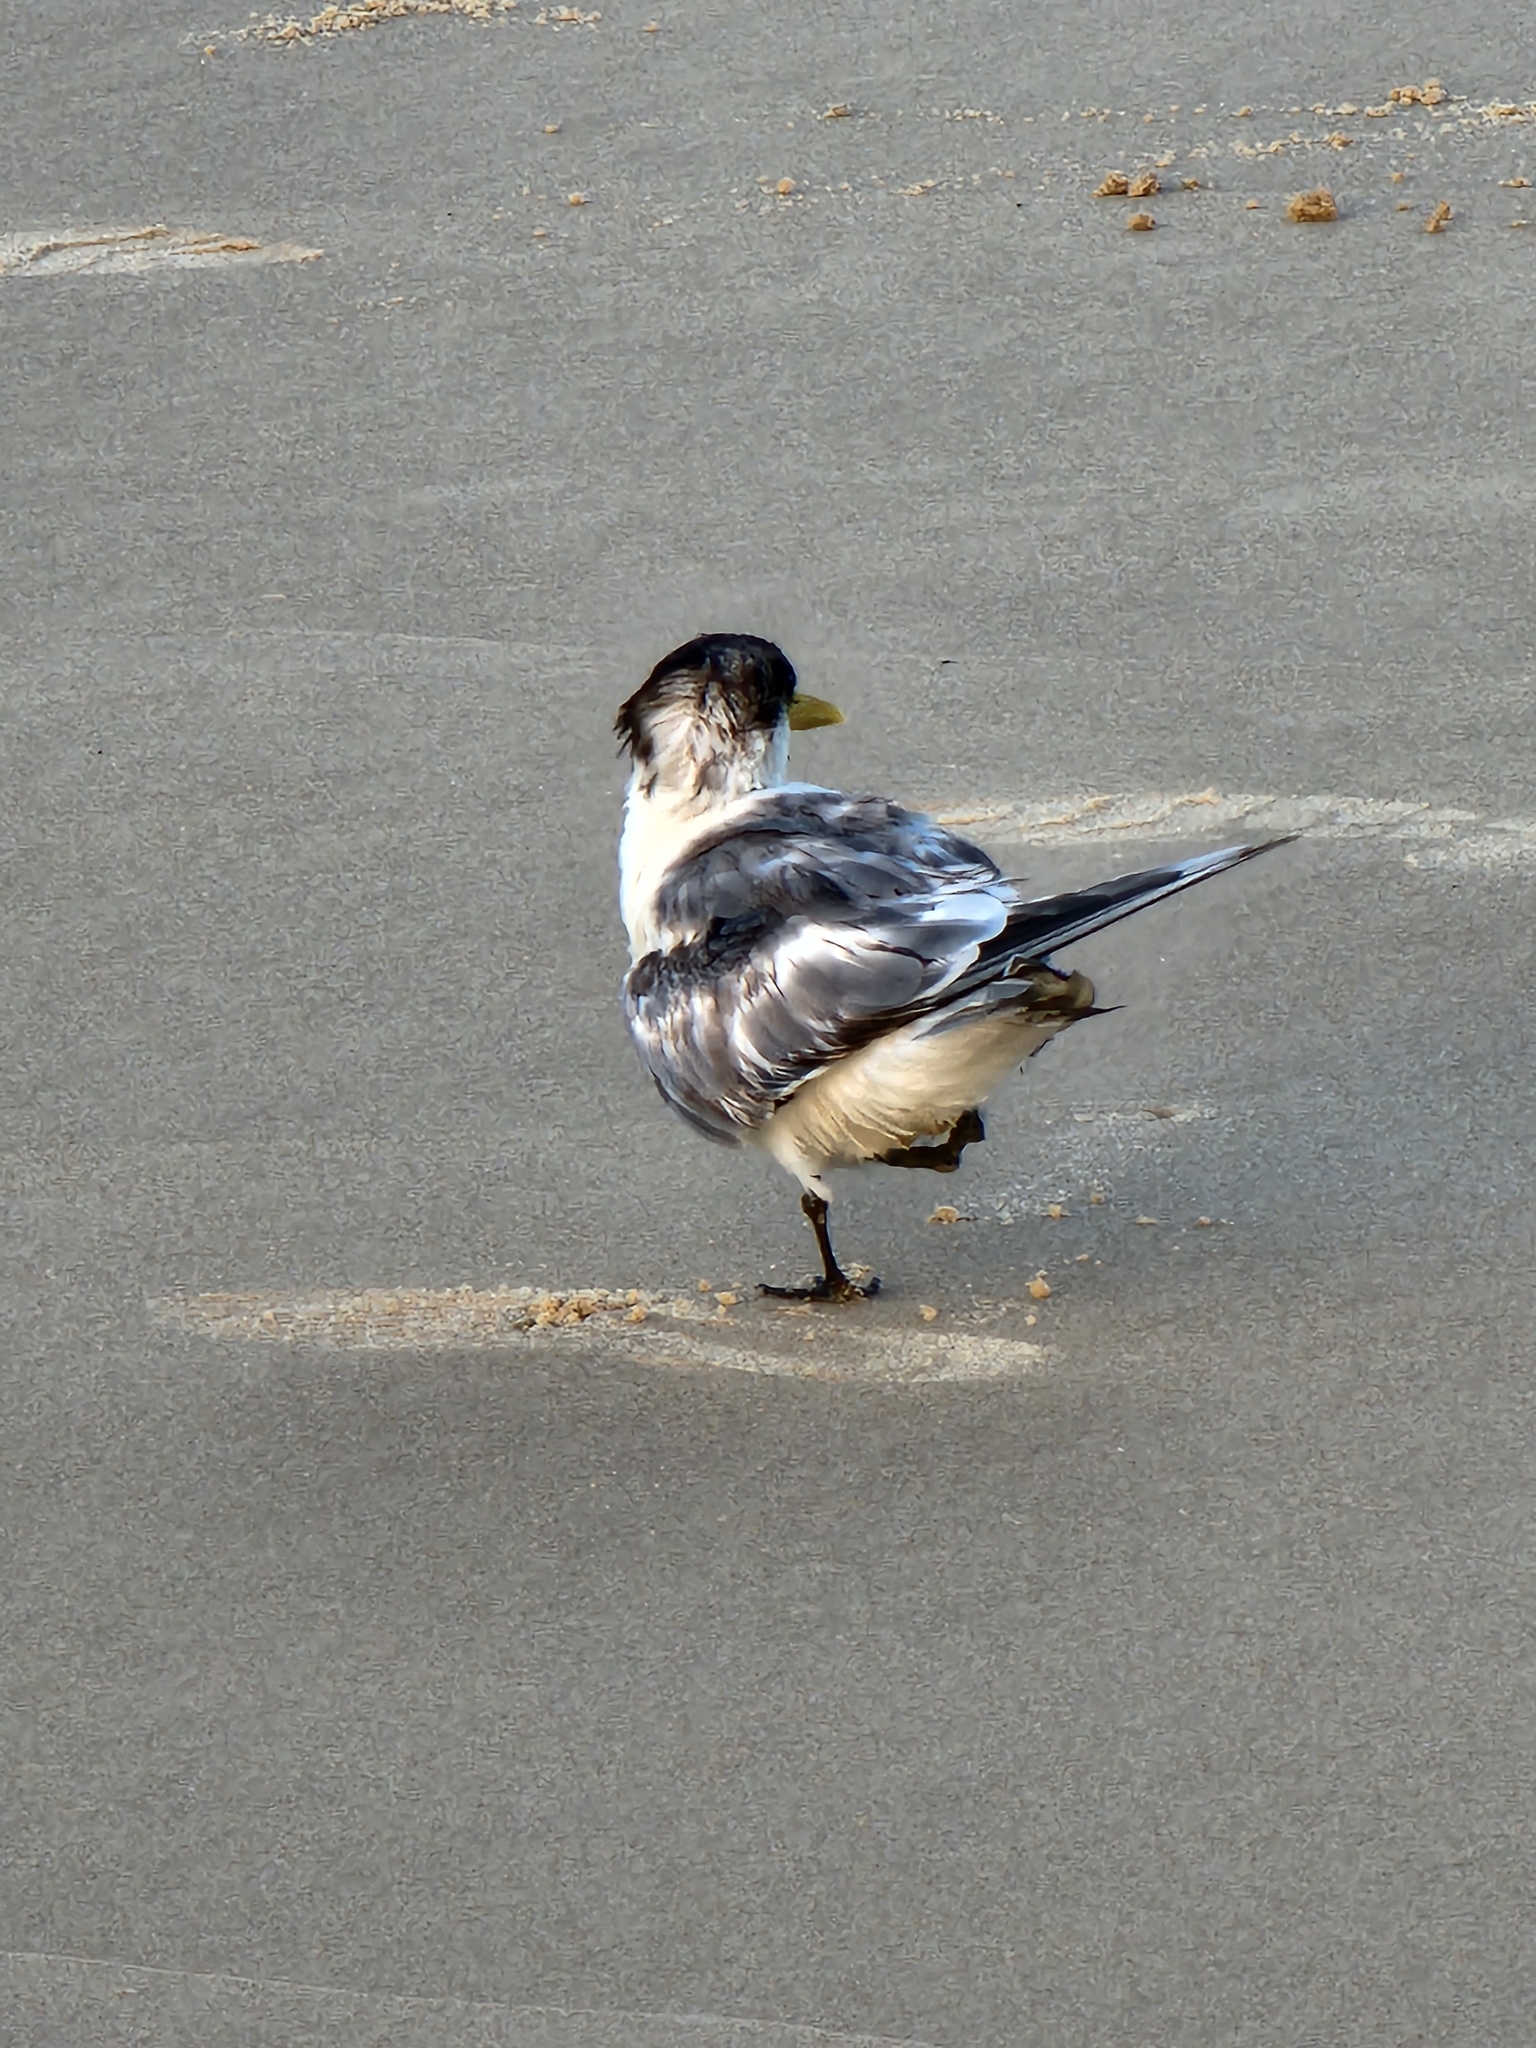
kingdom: Animalia
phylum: Chordata
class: Aves
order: Charadriiformes
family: Laridae
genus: Thalasseus
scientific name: Thalasseus bergii
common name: Greater crested tern
